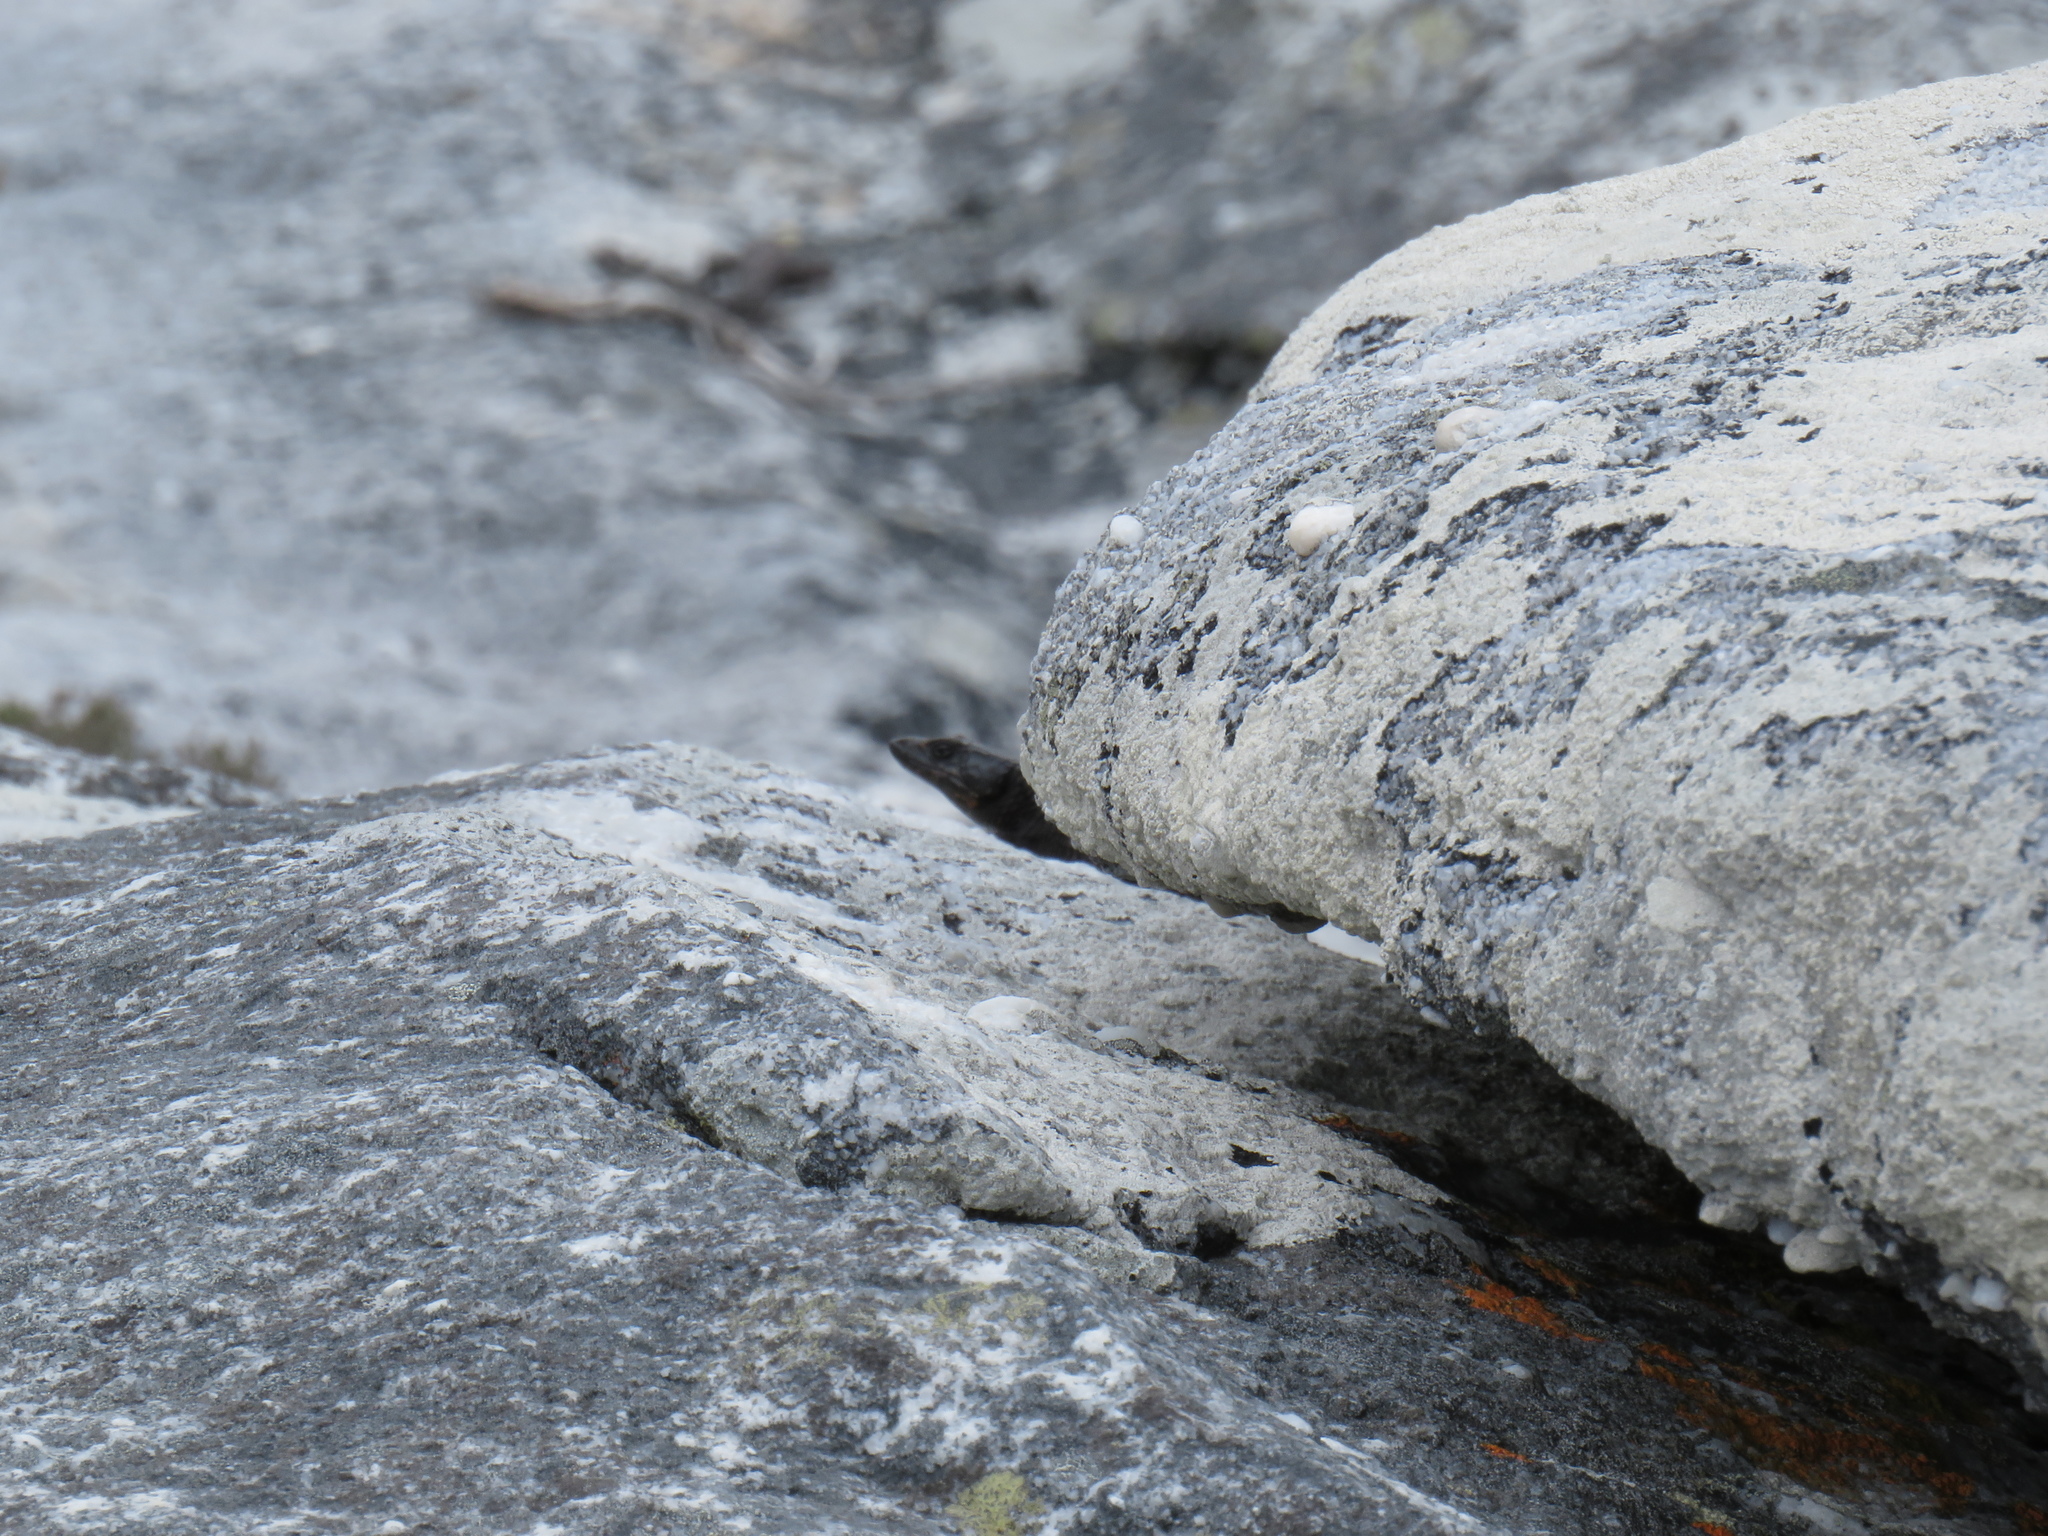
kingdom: Animalia
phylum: Chordata
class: Squamata
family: Cordylidae
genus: Cordylus
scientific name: Cordylus niger
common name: Black girdled lizard
